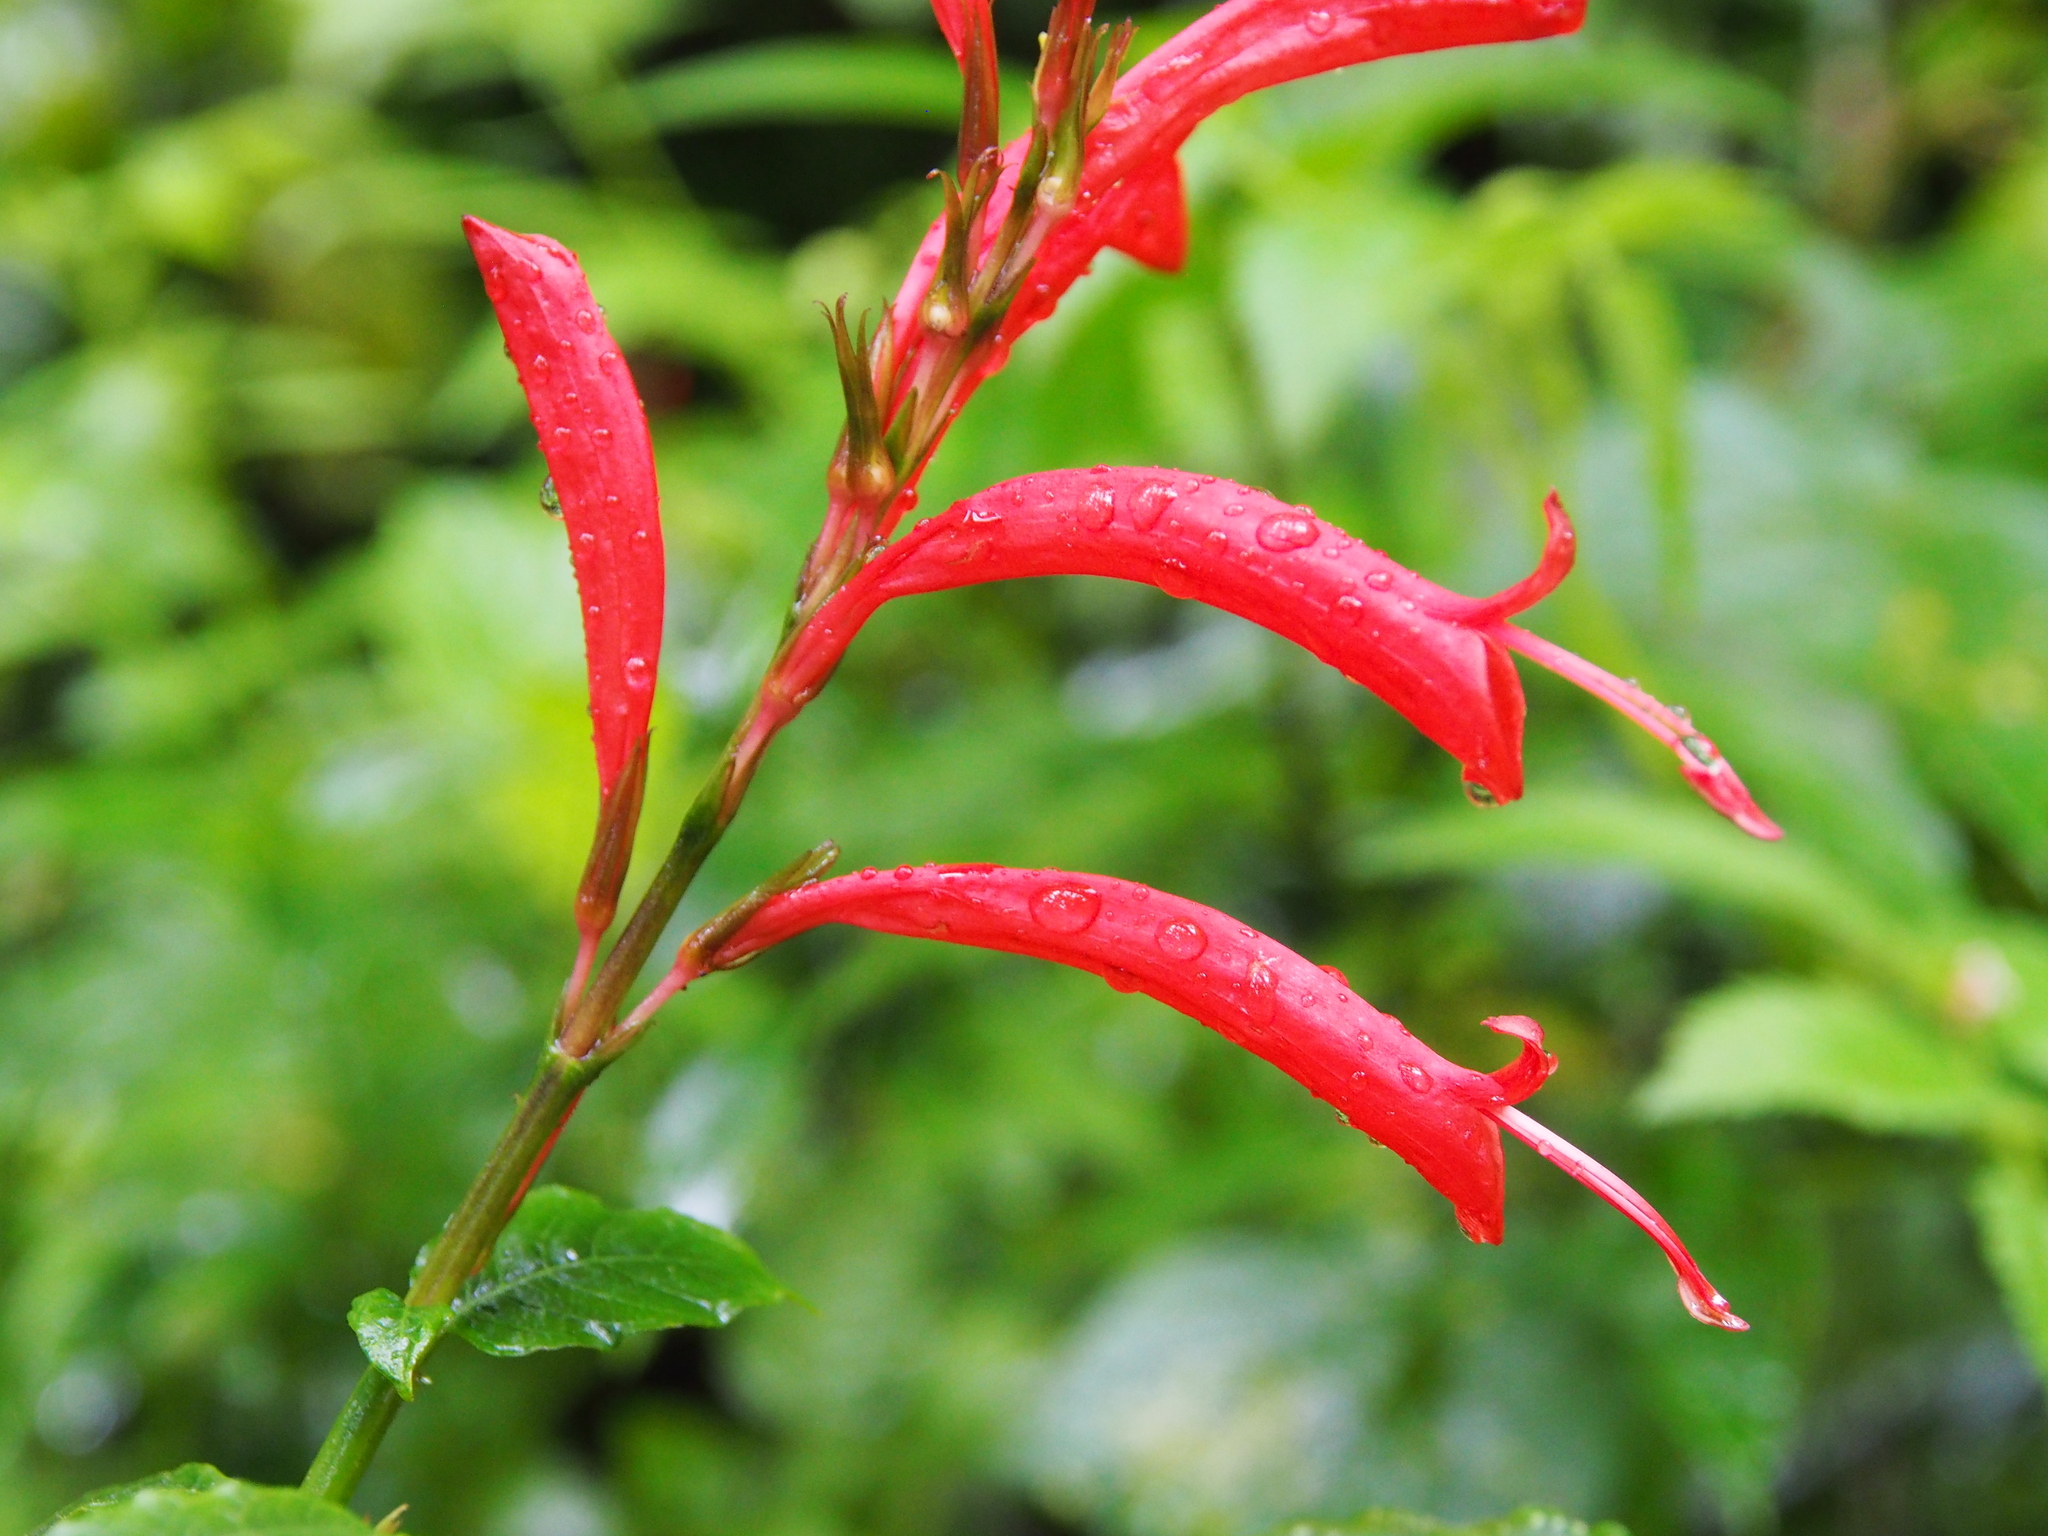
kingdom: Plantae
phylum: Tracheophyta
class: Magnoliopsida
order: Lamiales
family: Acanthaceae
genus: Stenostephanus
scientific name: Stenostephanus leiorhachis
